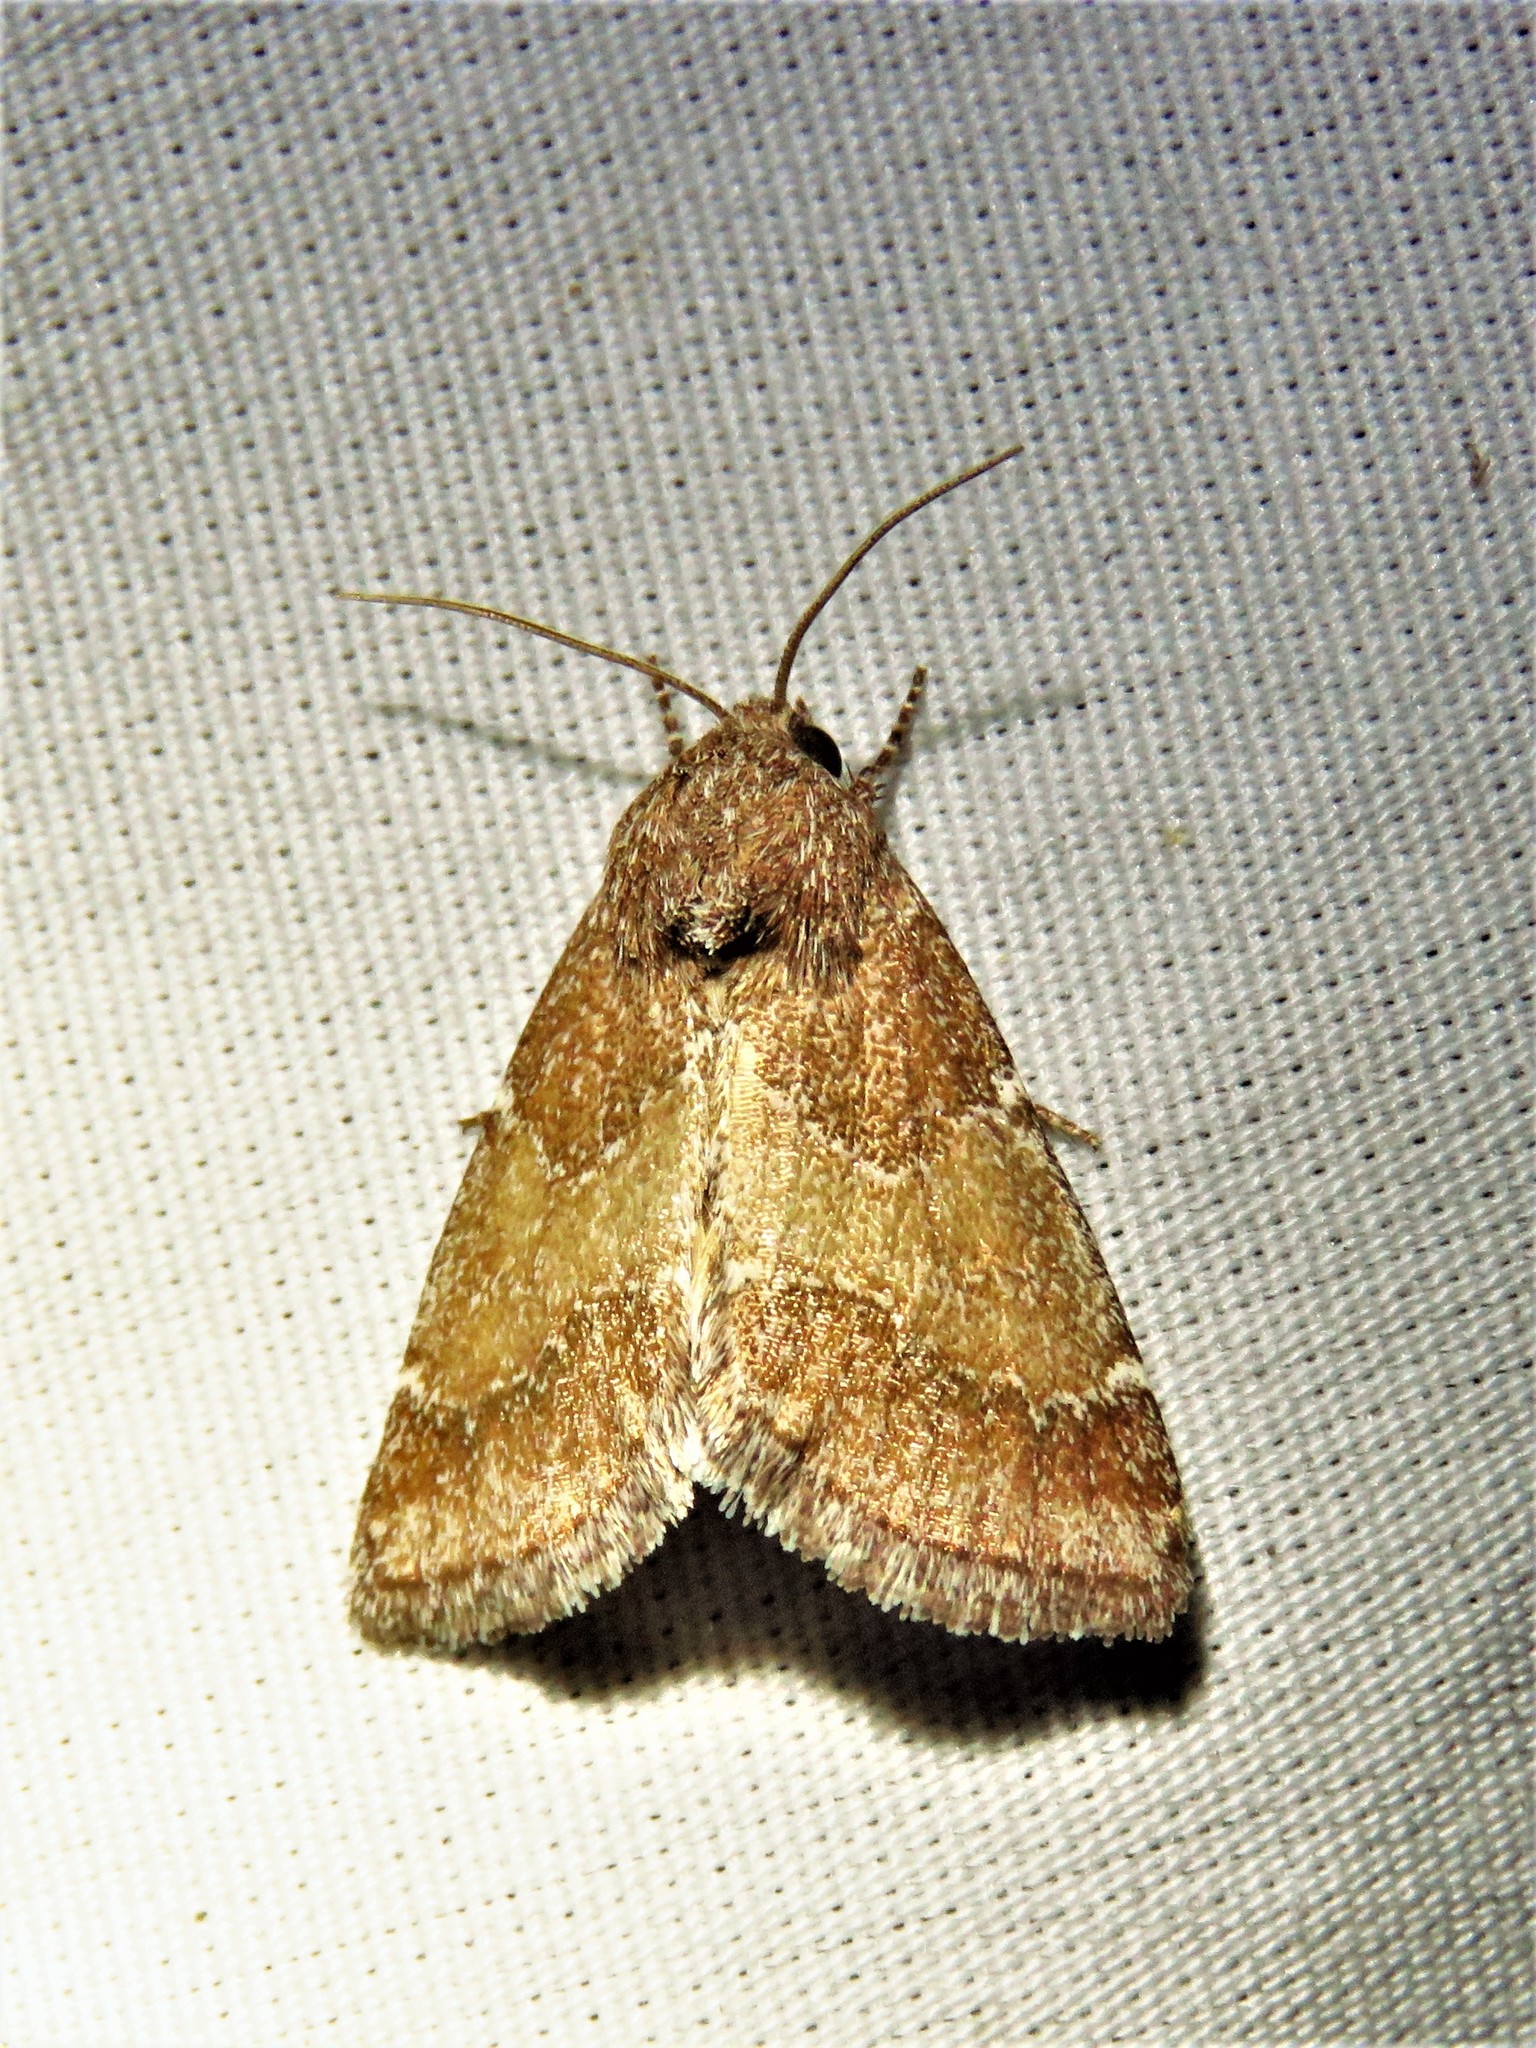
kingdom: Animalia
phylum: Arthropoda
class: Insecta
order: Lepidoptera
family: Noctuidae
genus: Schinia
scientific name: Schinia saturata
